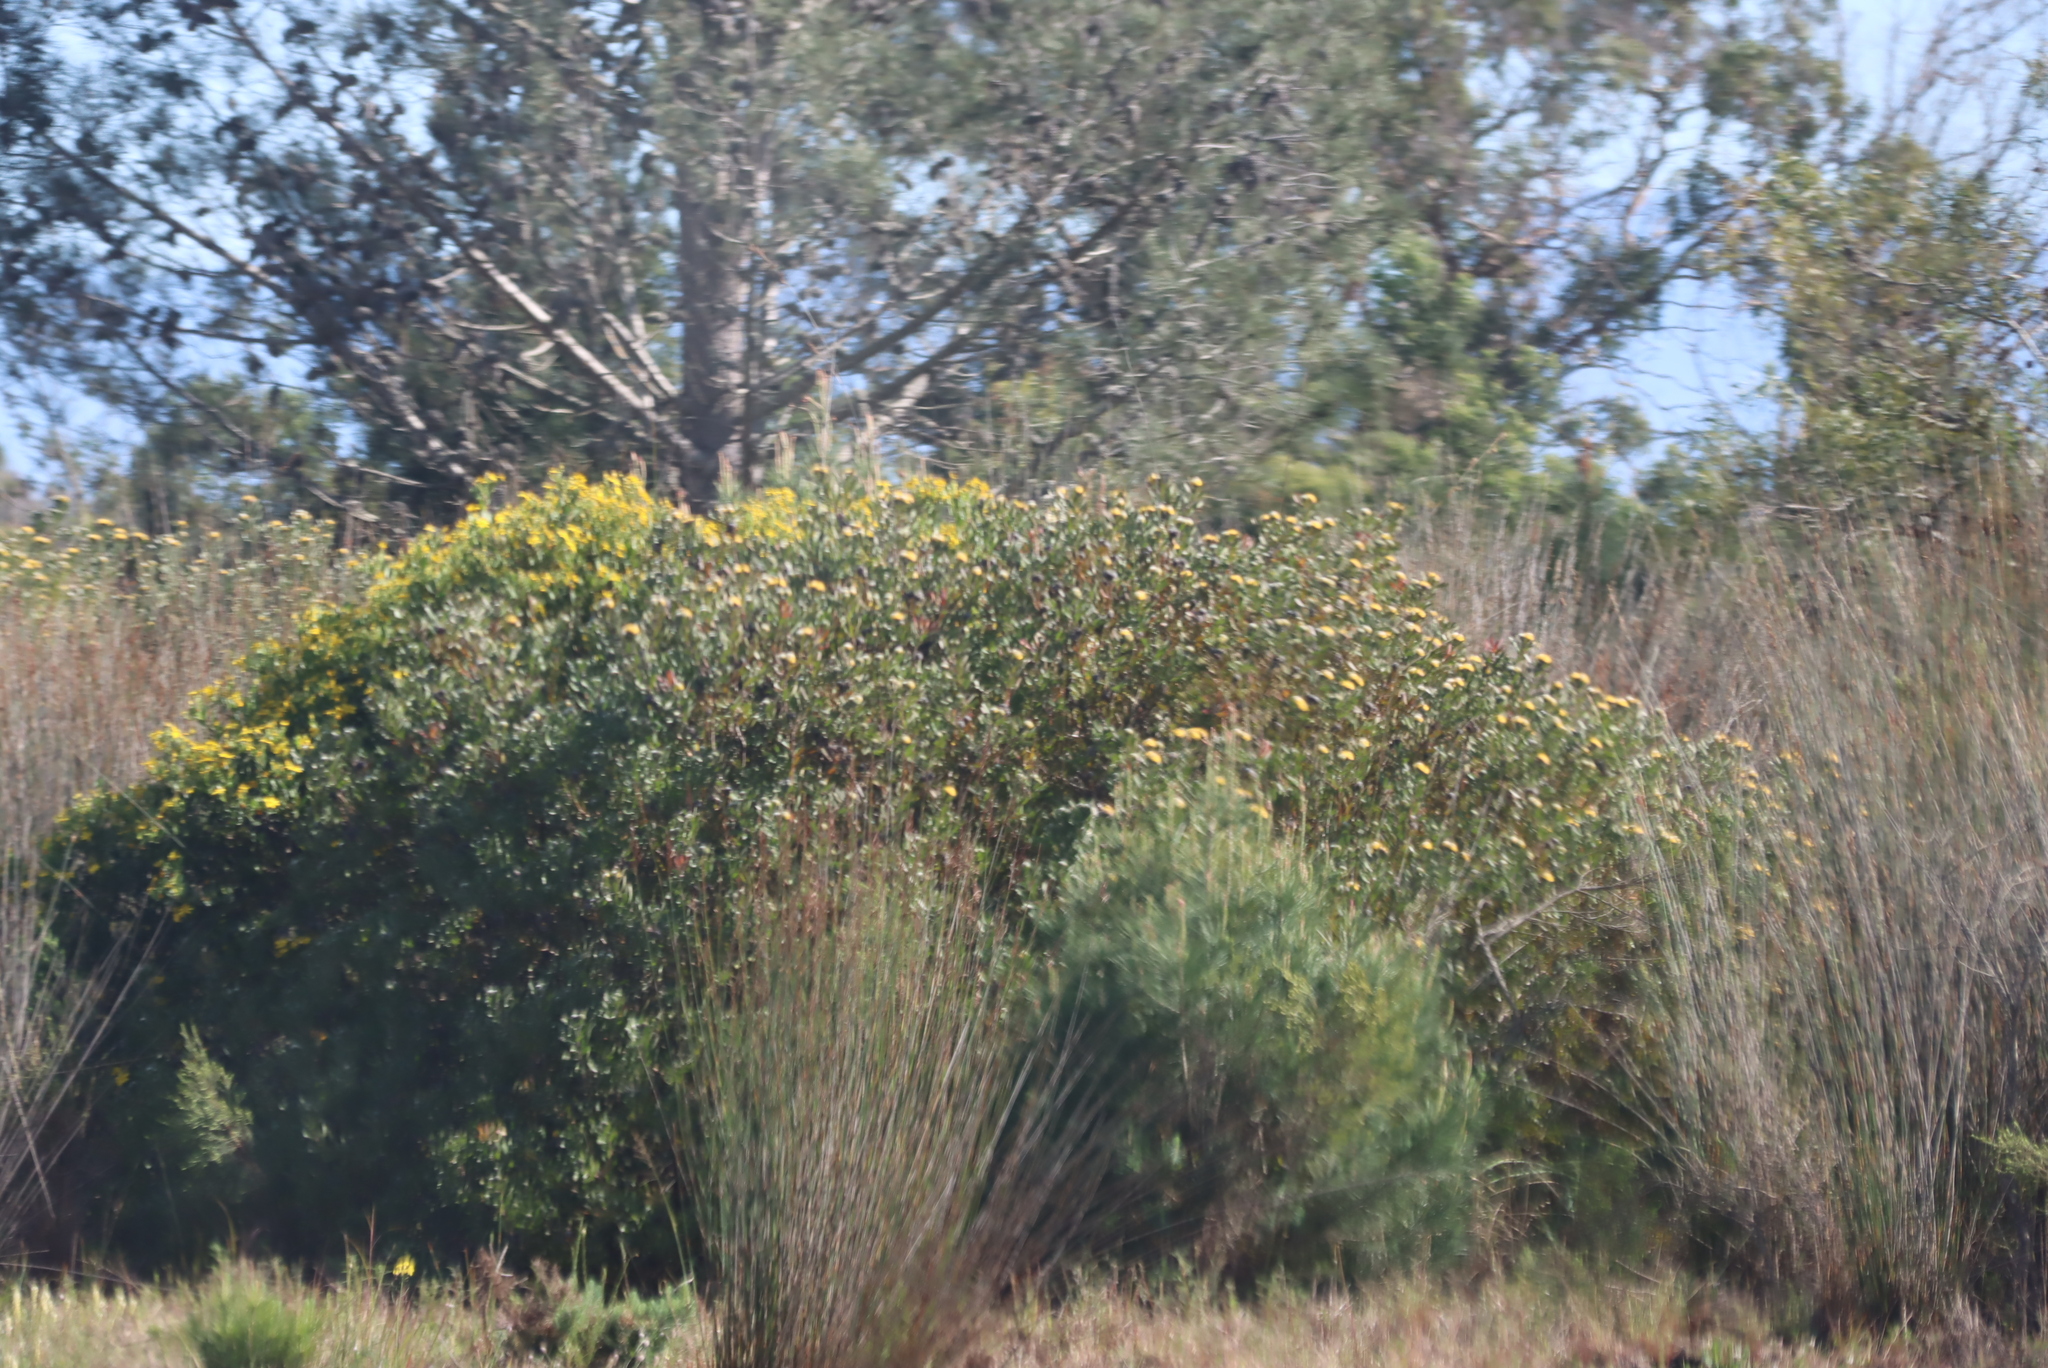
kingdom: Plantae
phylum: Tracheophyta
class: Magnoliopsida
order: Proteales
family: Proteaceae
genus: Leucospermum
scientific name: Leucospermum muirii
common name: Albertinia pincushion
